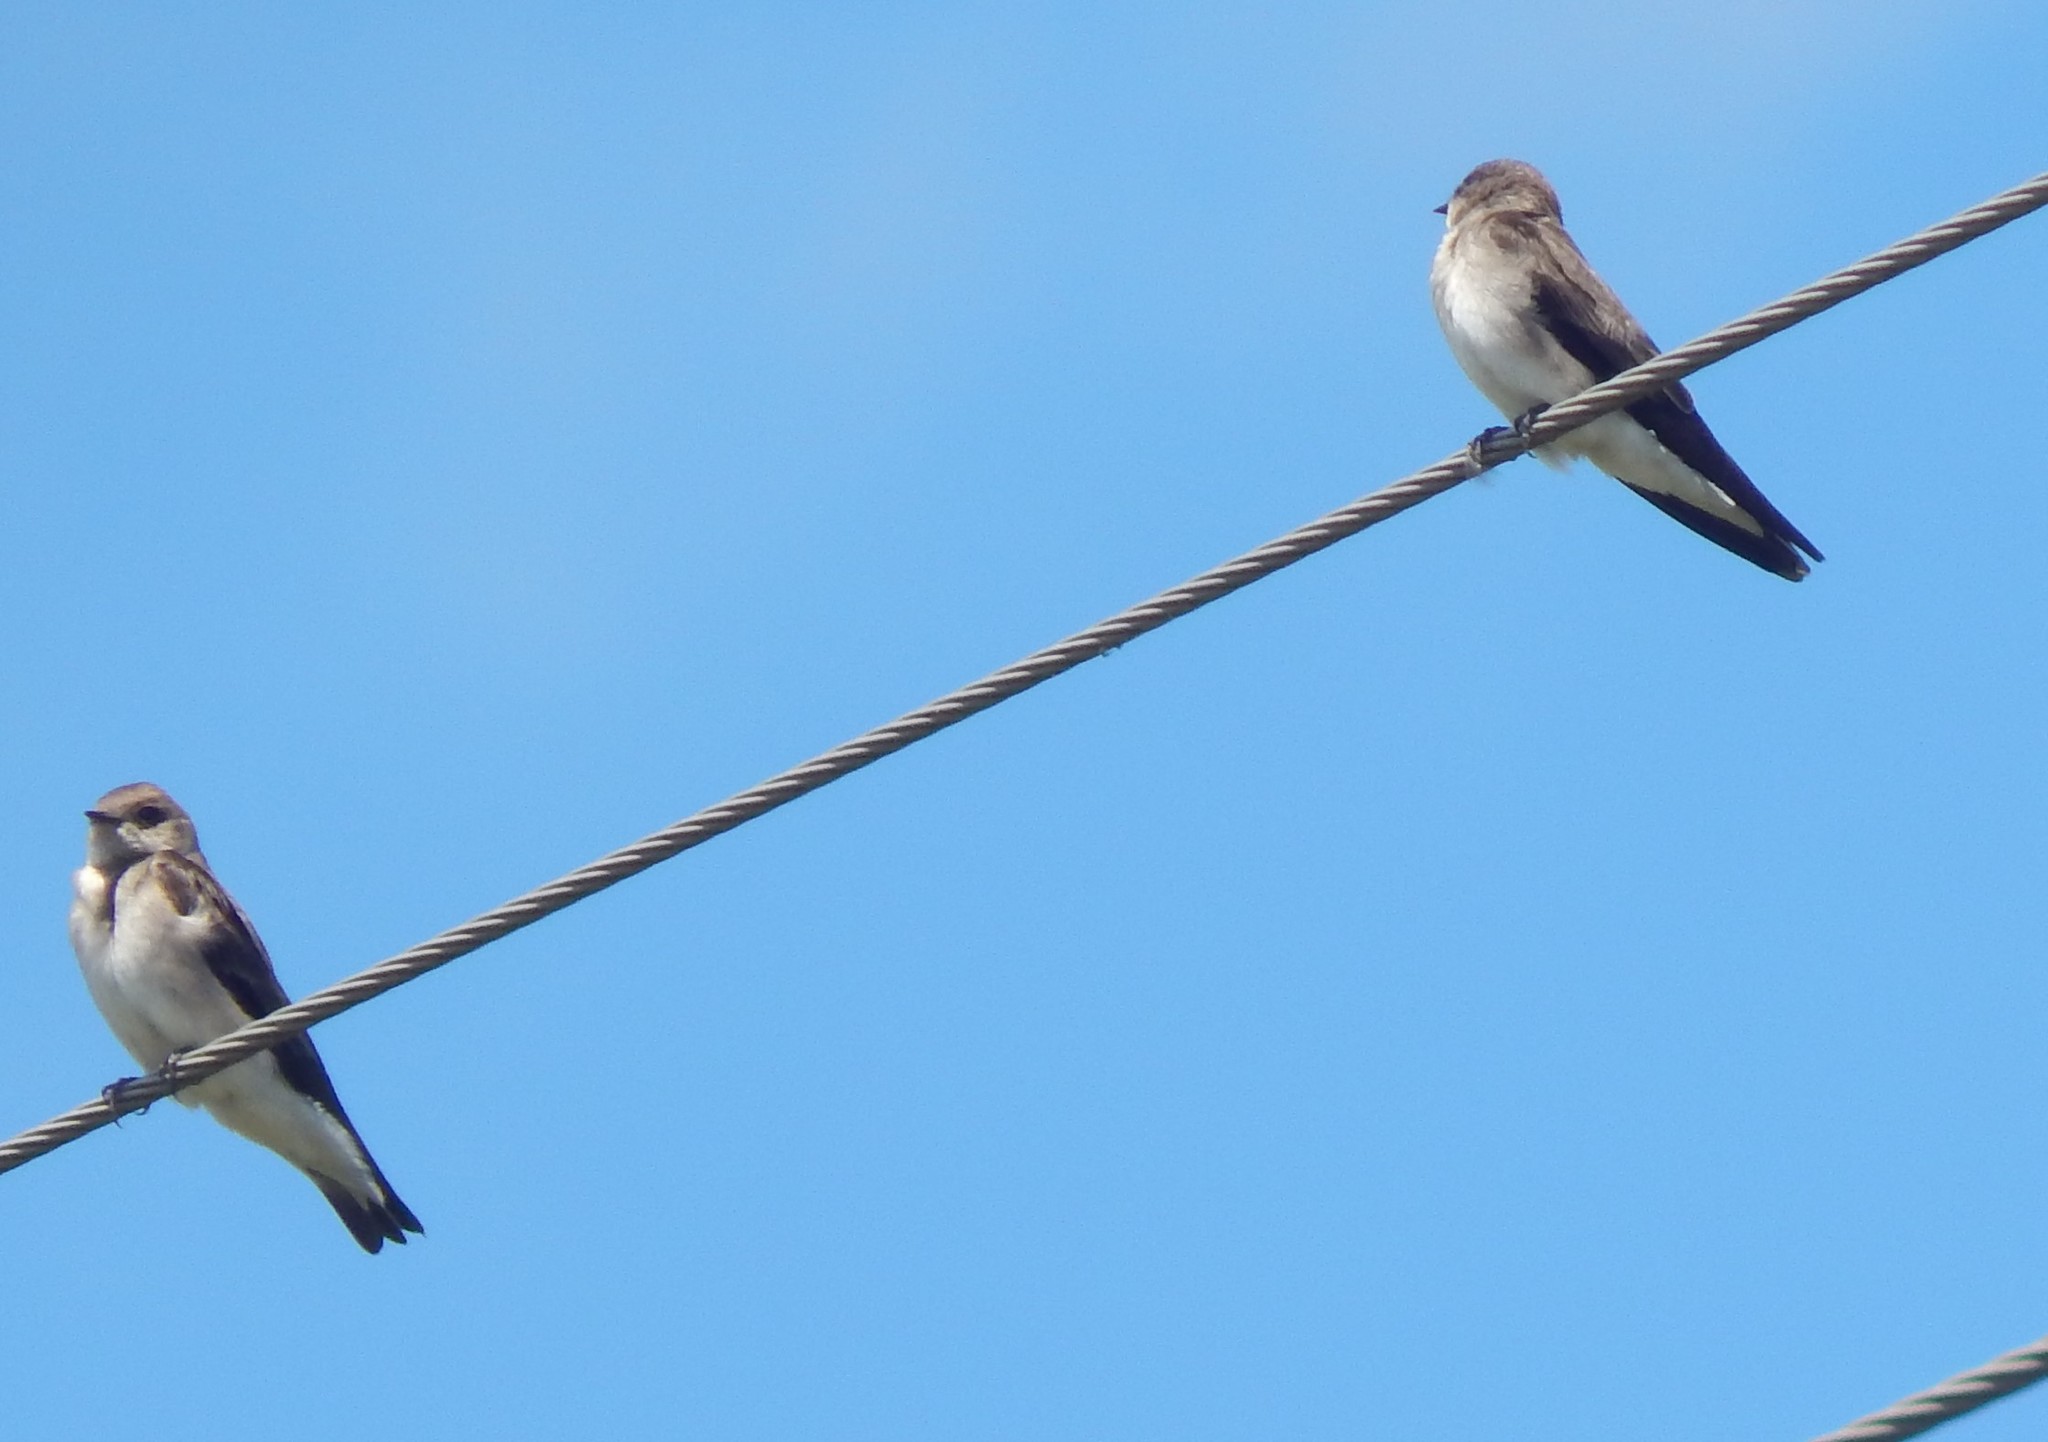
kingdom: Animalia
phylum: Chordata
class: Aves
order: Passeriformes
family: Hirundinidae
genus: Stelgidopteryx
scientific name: Stelgidopteryx serripennis
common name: Northern rough-winged swallow
